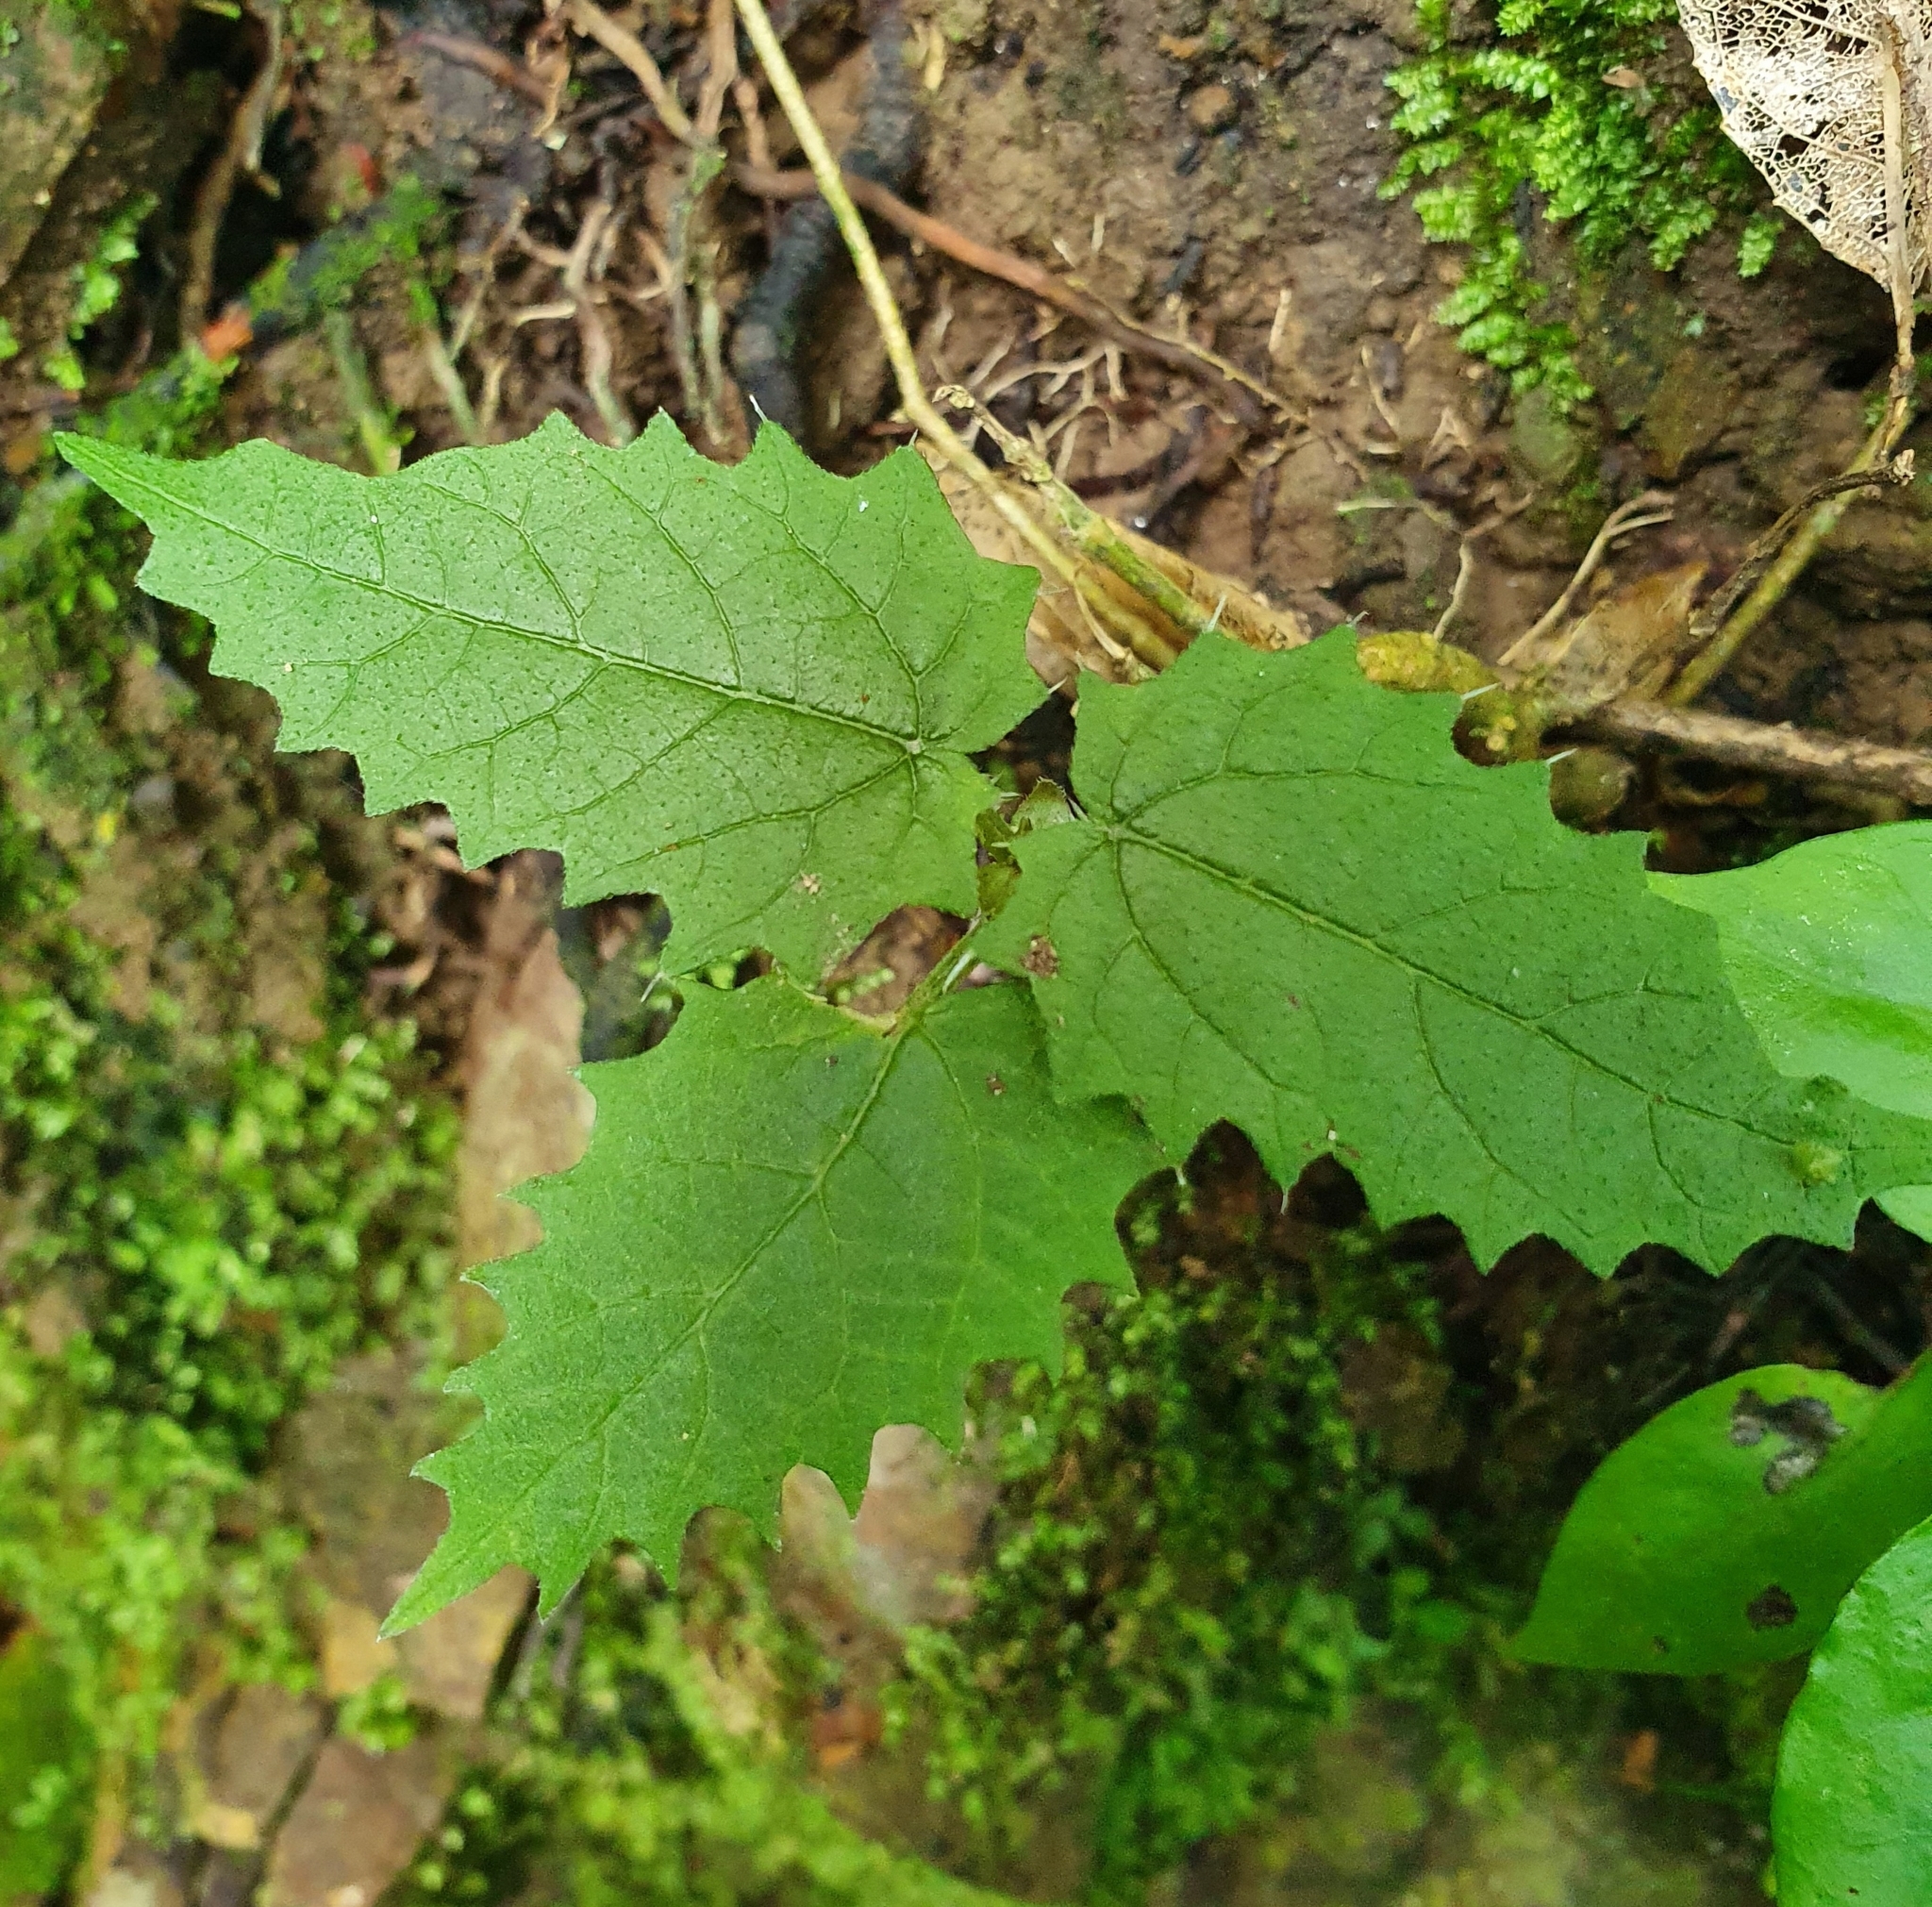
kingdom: Plantae
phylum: Tracheophyta
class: Magnoliopsida
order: Rosales
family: Urticaceae
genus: Urtica
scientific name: Urtica ferox
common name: Tree nettle
